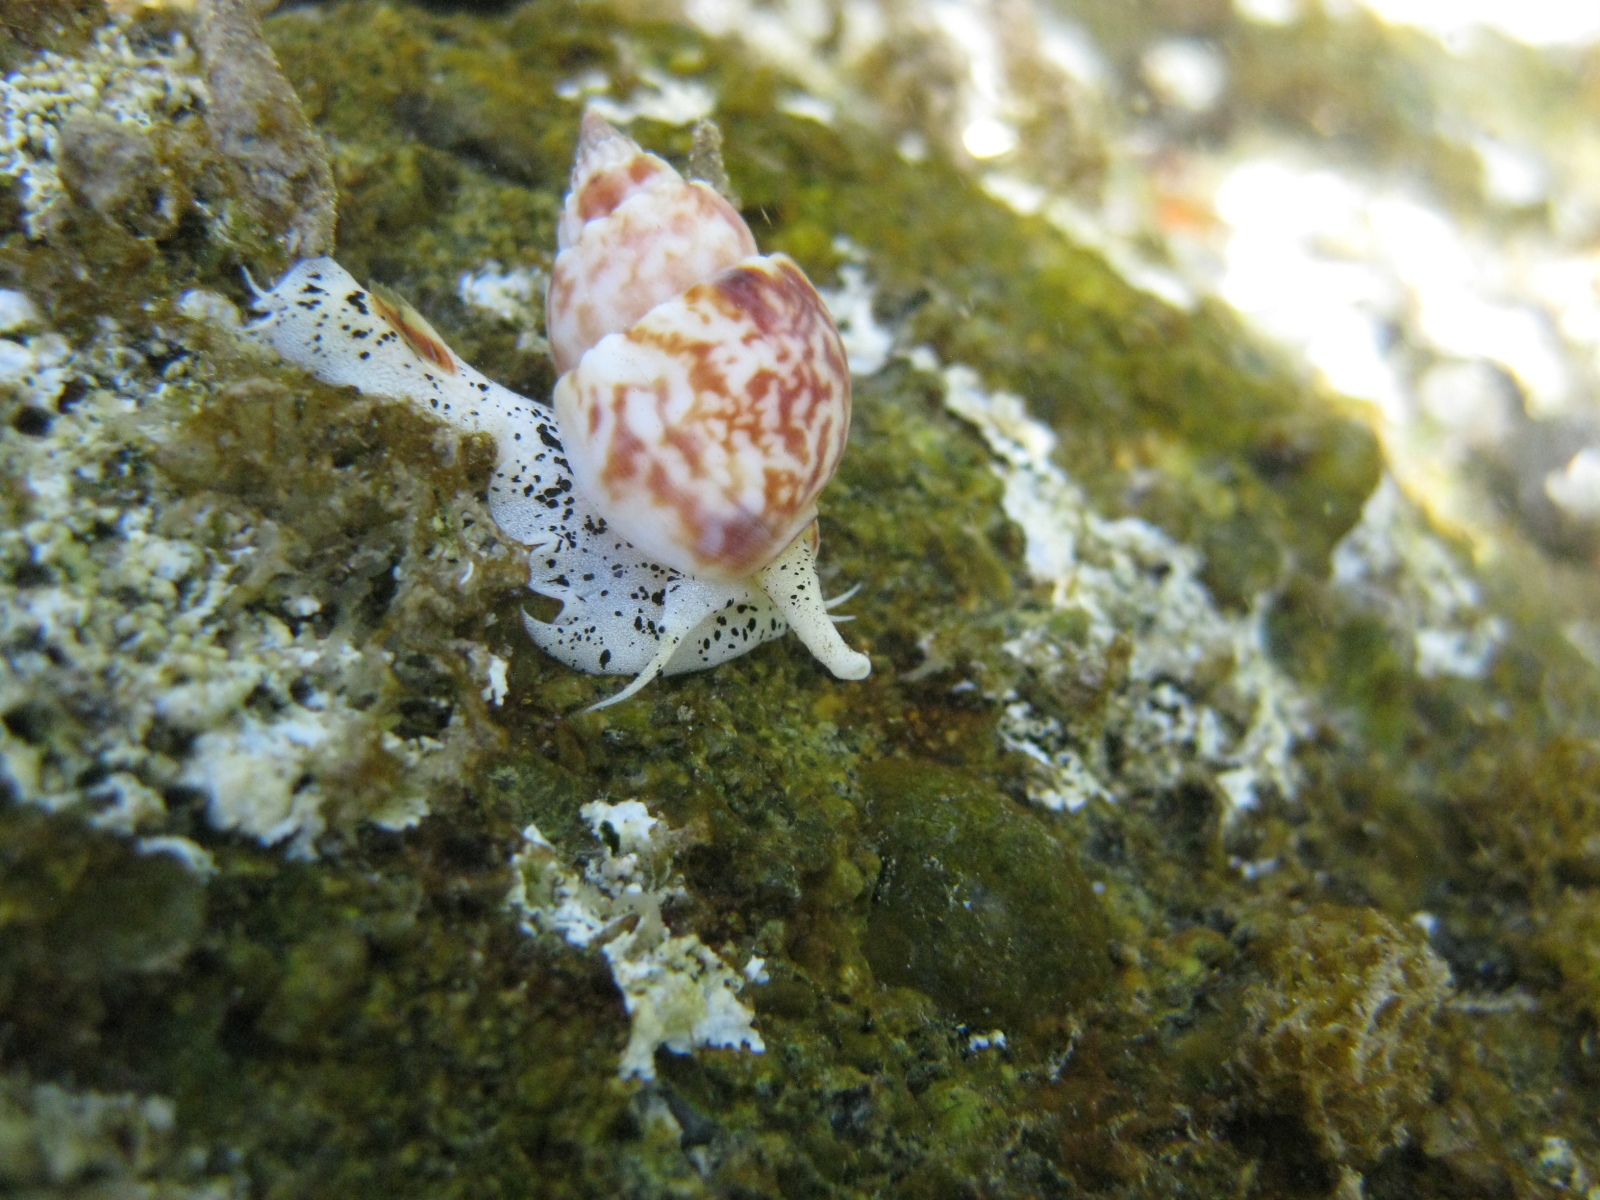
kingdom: Animalia
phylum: Mollusca
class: Gastropoda
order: Neogastropoda
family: Nassariidae
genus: Nassarius
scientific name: Nassarius spiratus
